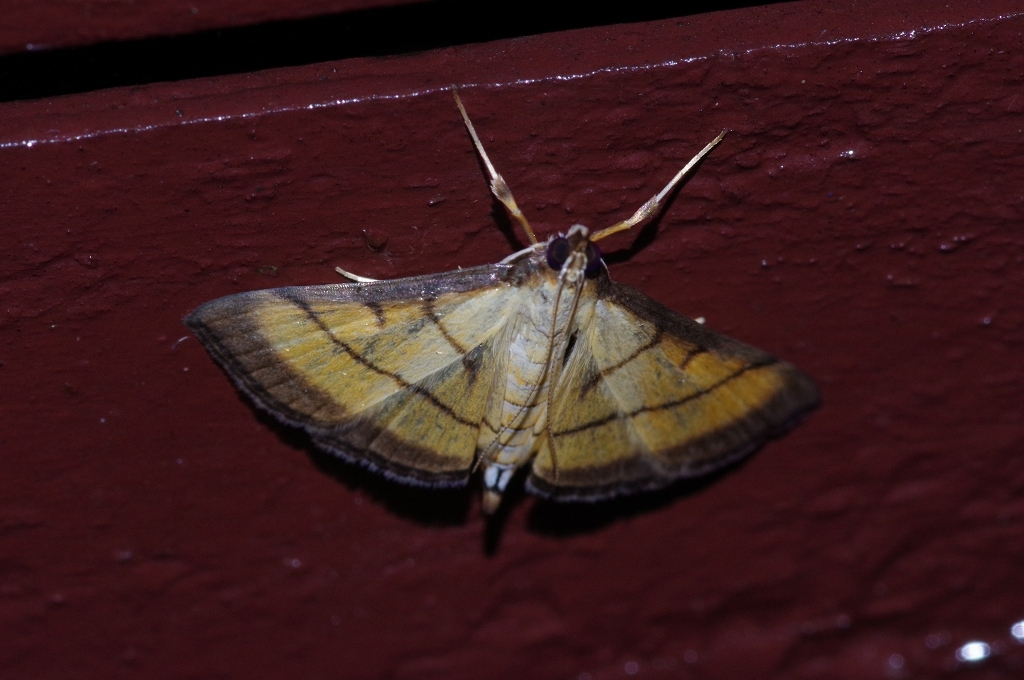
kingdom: Animalia
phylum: Arthropoda
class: Insecta
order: Lepidoptera
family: Crambidae
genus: Cnaphalocrocis
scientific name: Cnaphalocrocis medinalis
